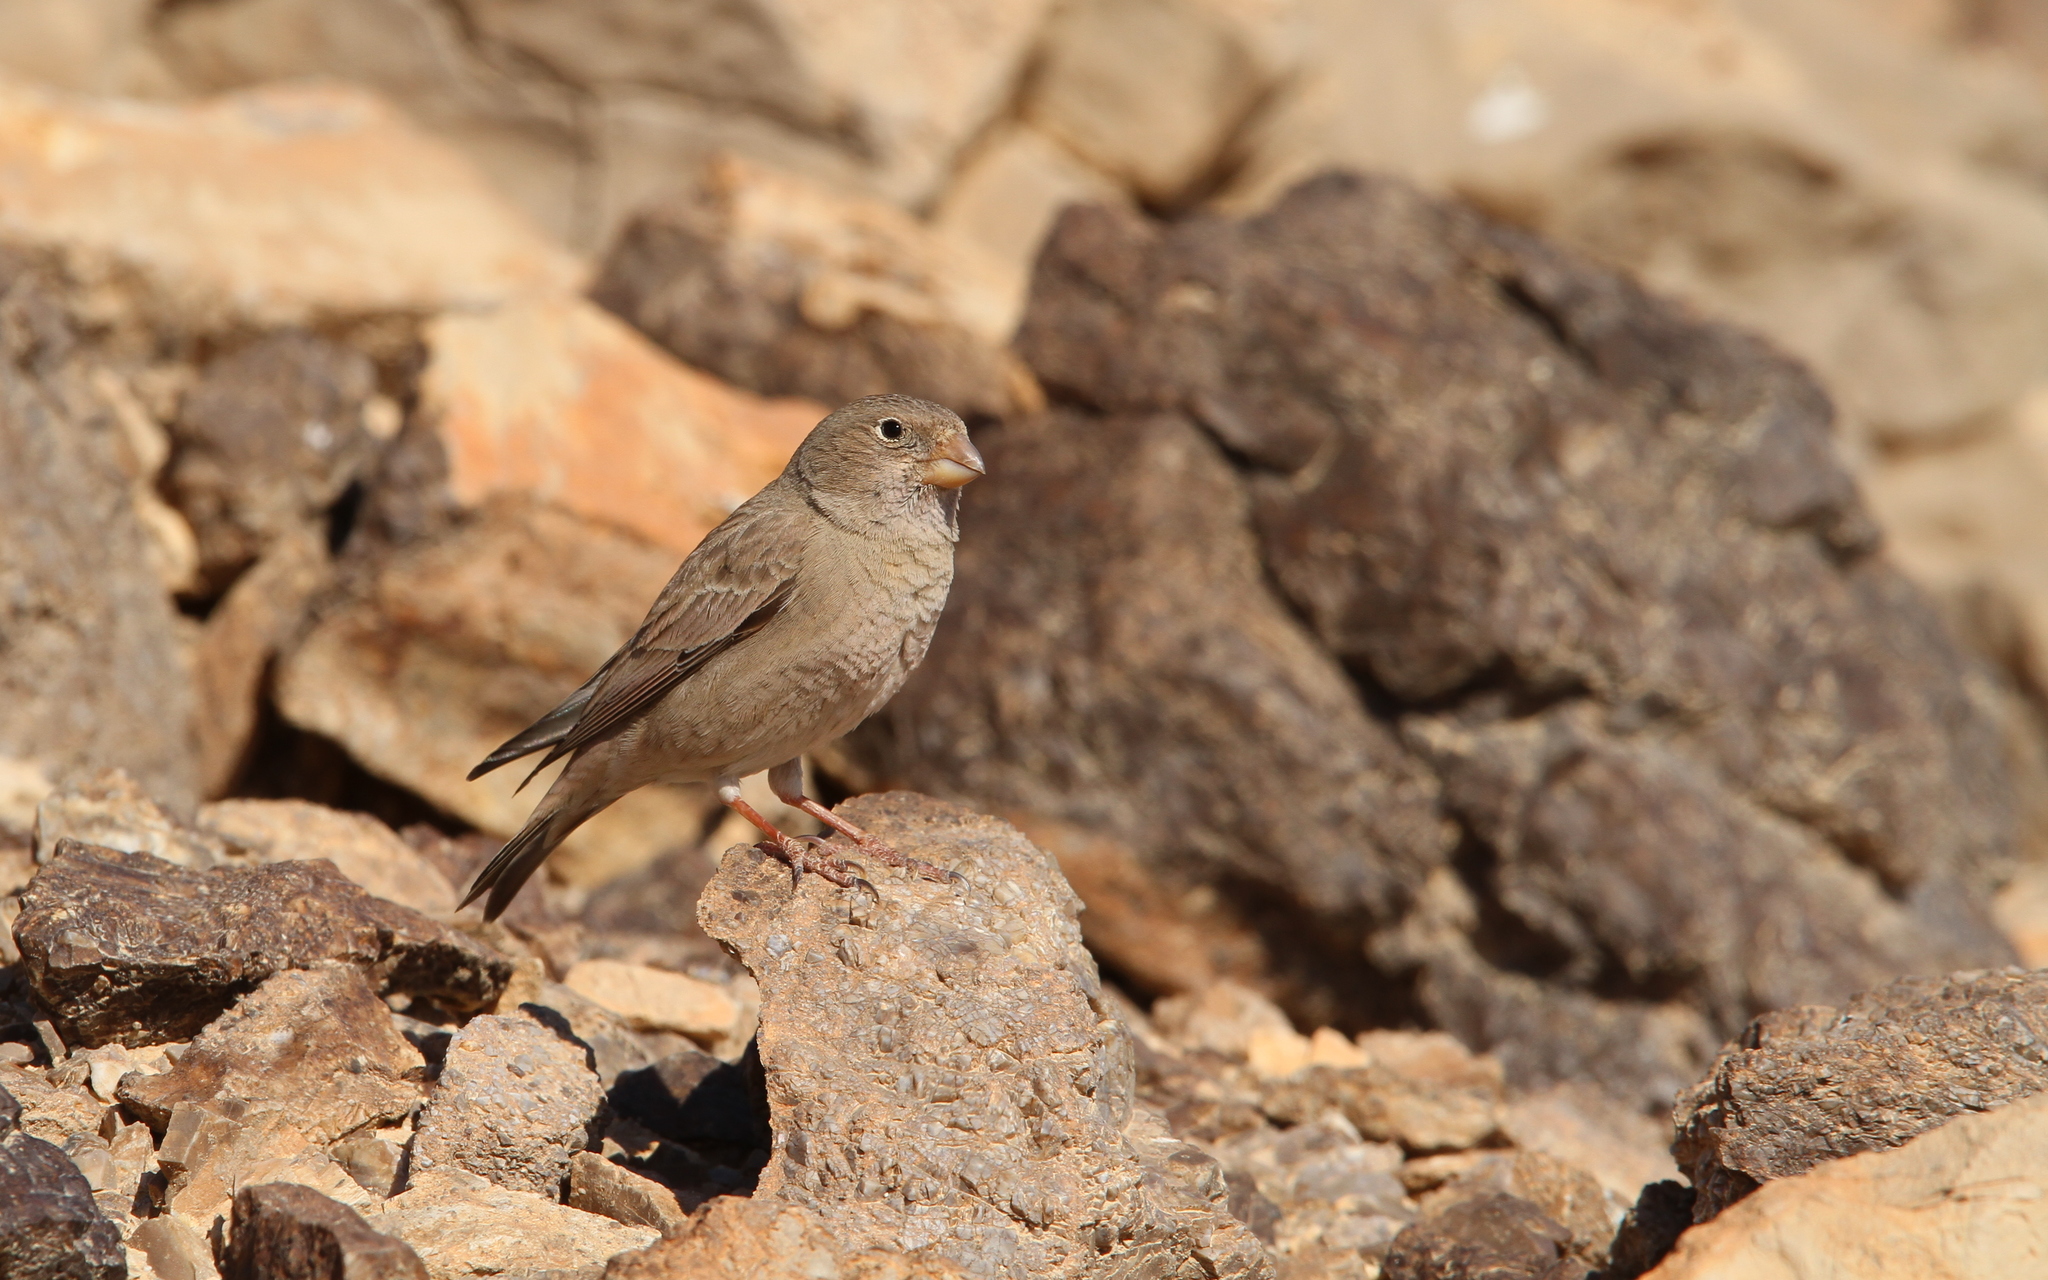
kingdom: Animalia
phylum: Chordata
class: Aves
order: Passeriformes
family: Fringillidae
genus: Bucanetes
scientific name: Bucanetes githagineus
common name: Trumpeter finch
